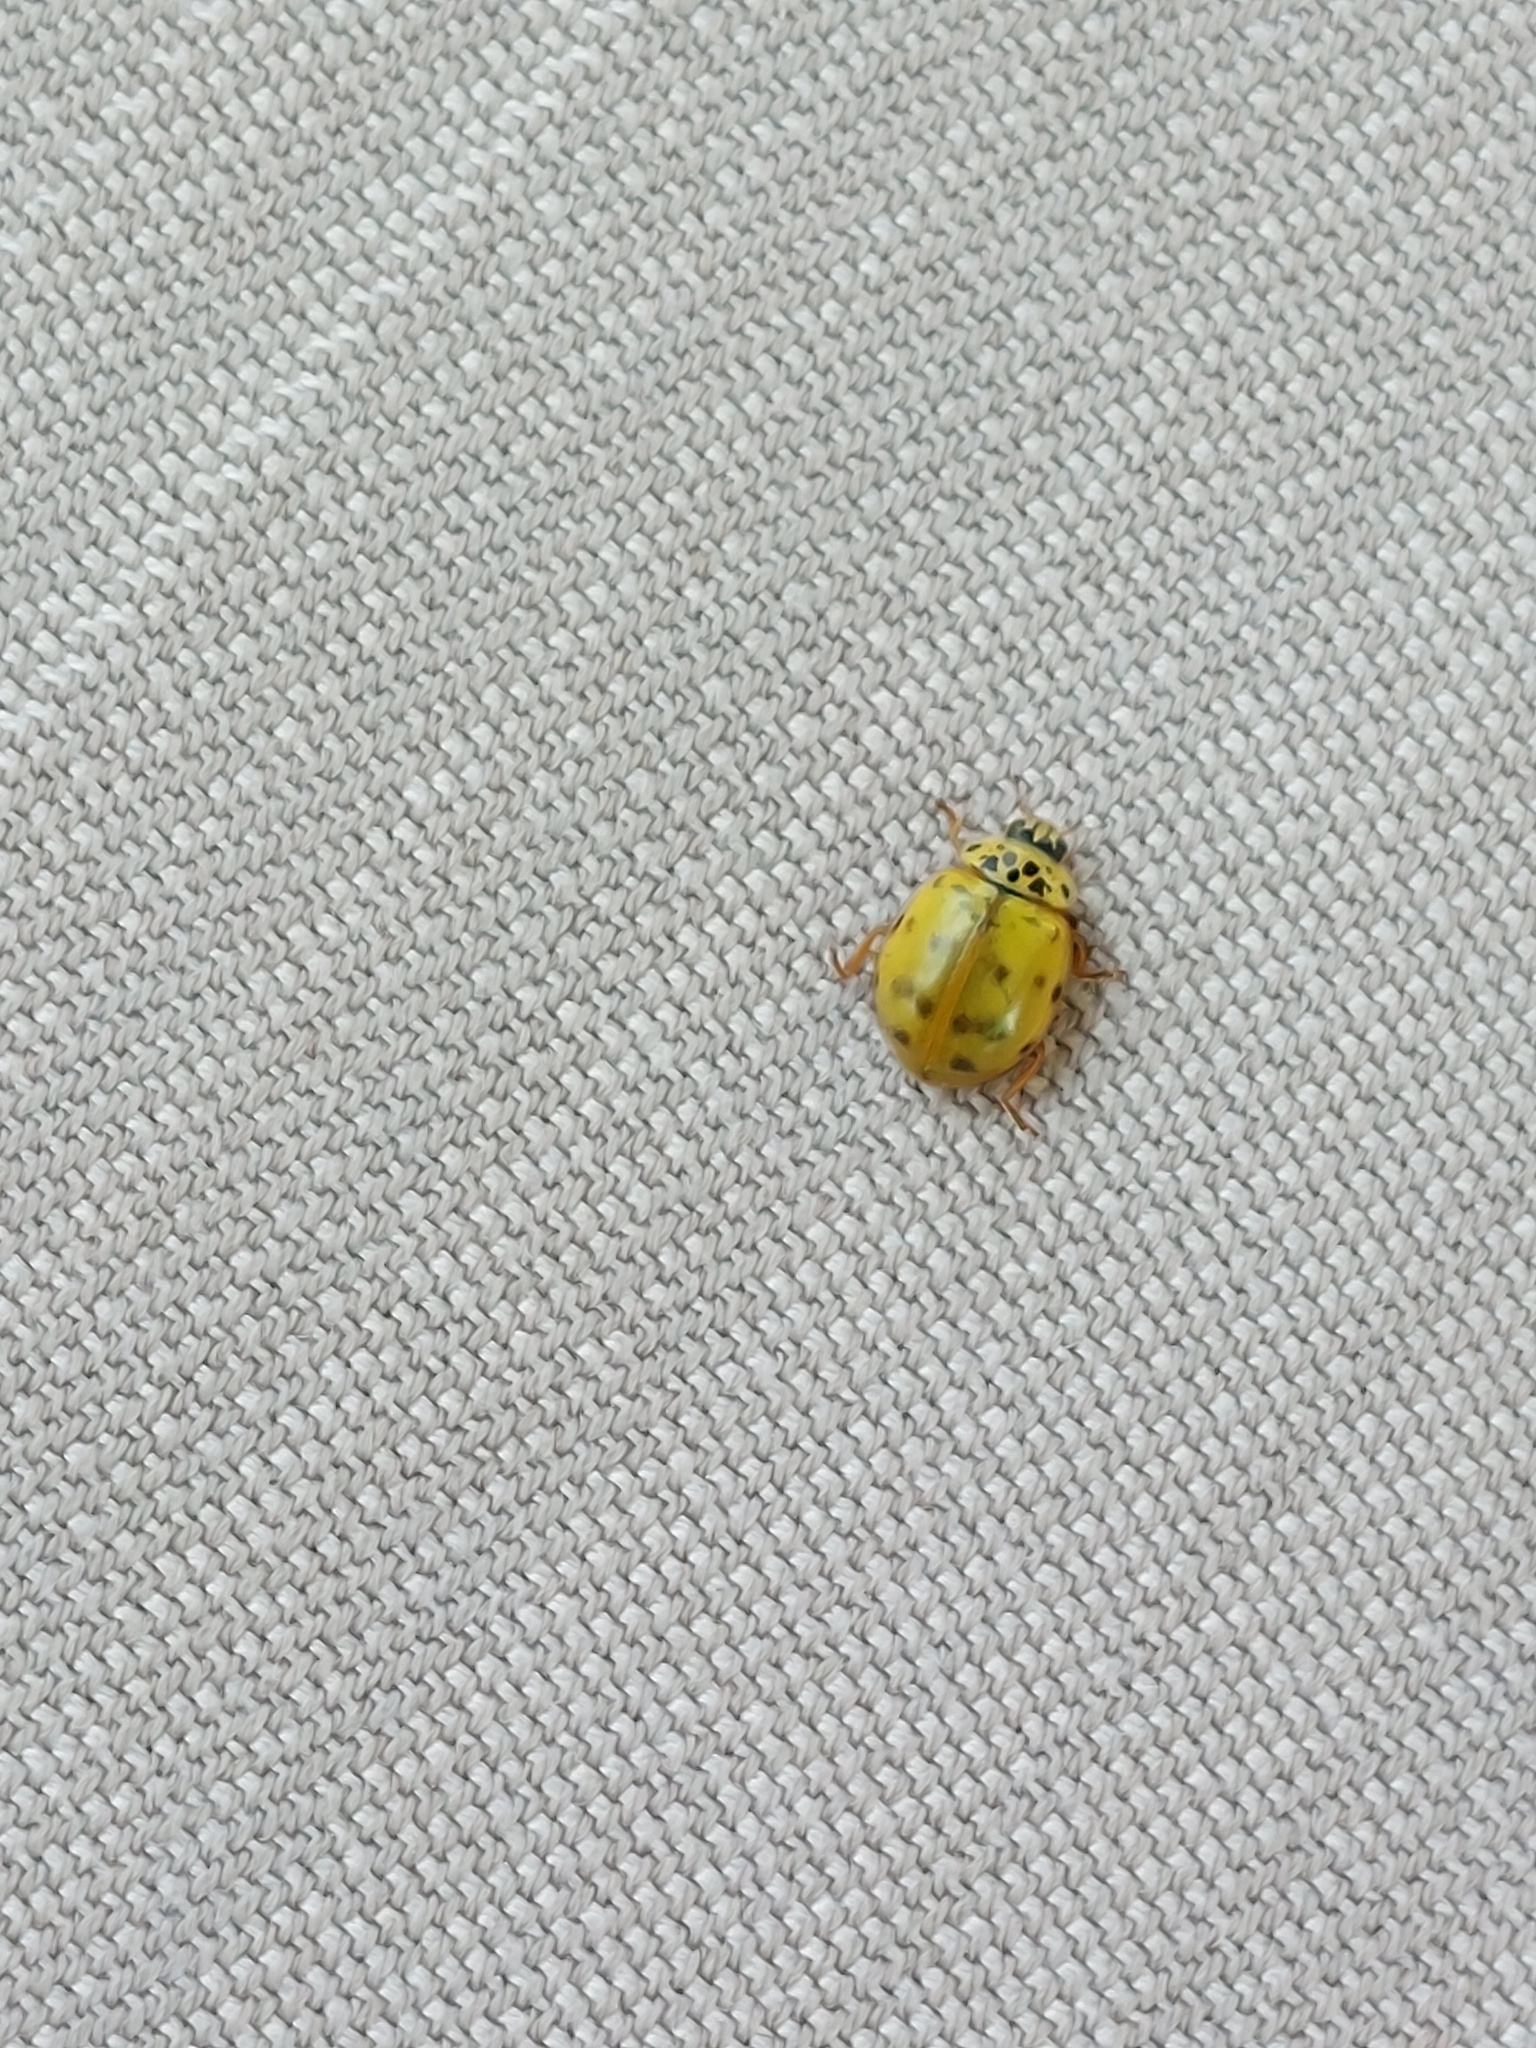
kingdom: Animalia
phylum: Arthropoda
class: Insecta
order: Coleoptera
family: Coccinellidae
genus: Harmonia
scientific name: Harmonia axyridis
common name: Harlequin ladybird
